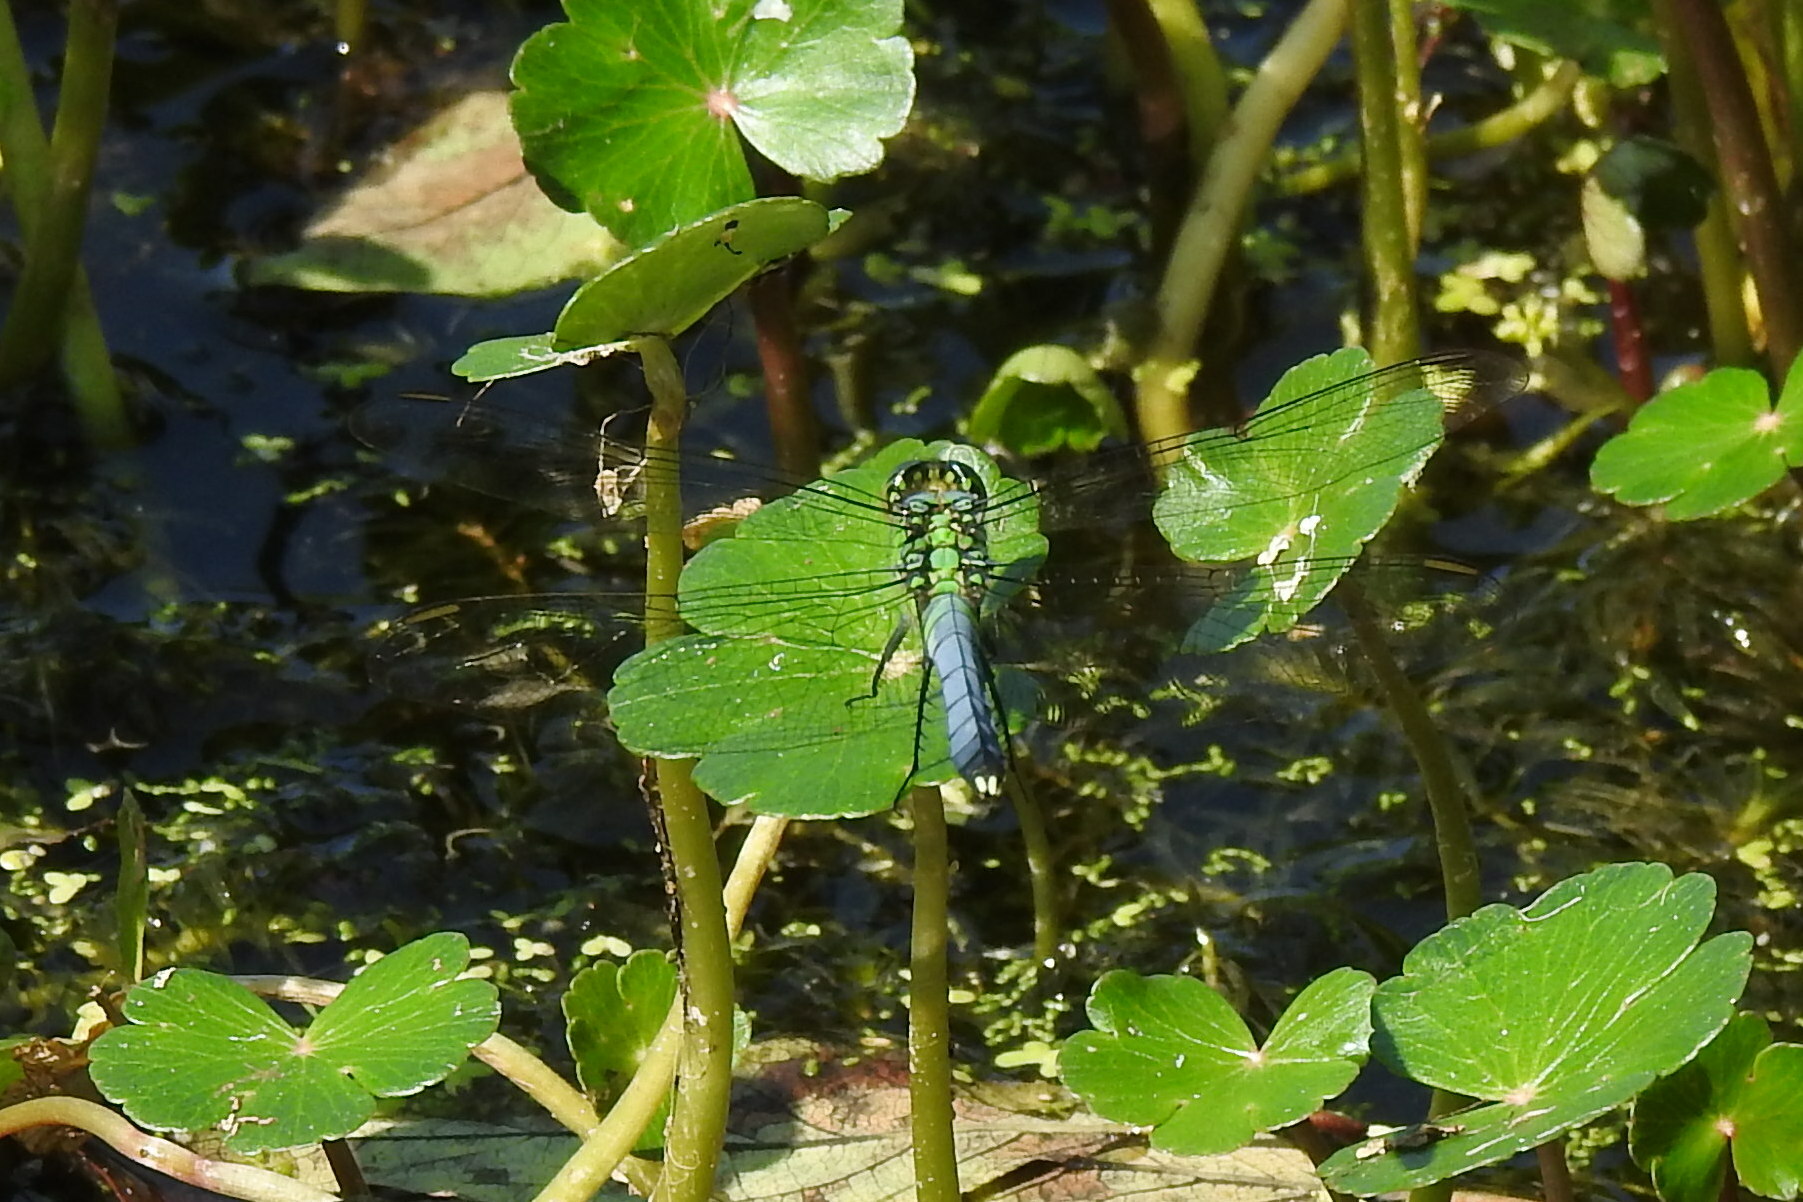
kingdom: Animalia
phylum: Arthropoda
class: Insecta
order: Odonata
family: Libellulidae
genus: Erythemis
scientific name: Erythemis simplicicollis
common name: Eastern pondhawk
